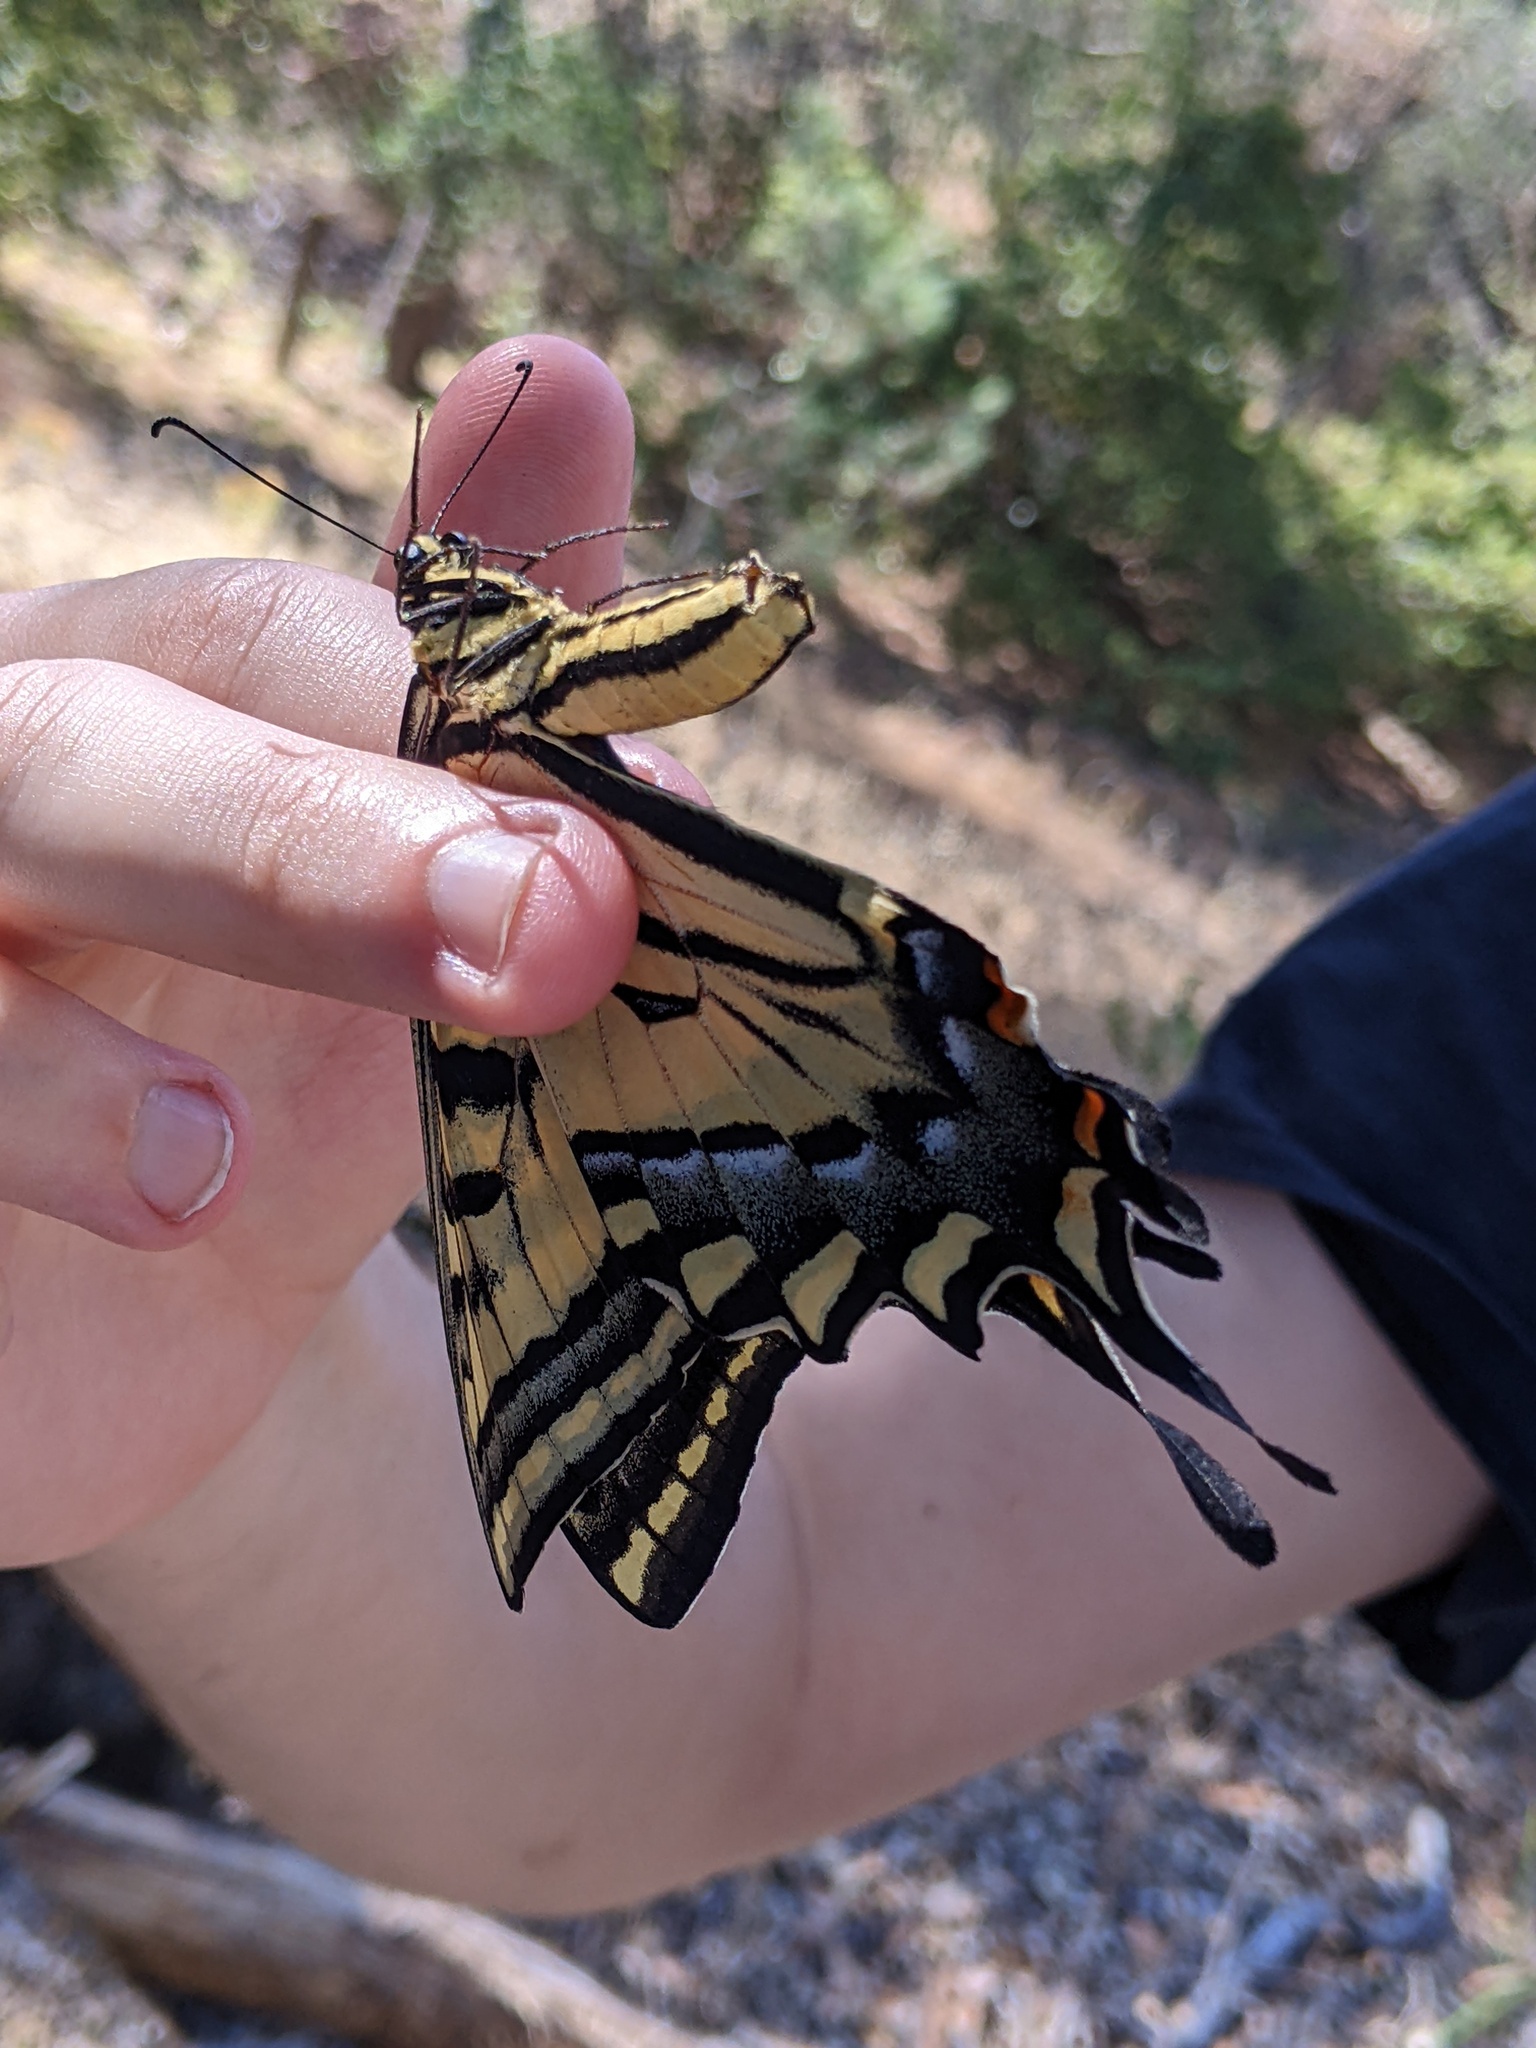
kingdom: Animalia
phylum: Arthropoda
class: Insecta
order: Lepidoptera
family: Papilionidae
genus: Papilio
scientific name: Papilio multicaudata
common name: Two-tailed tiger swallowtail
